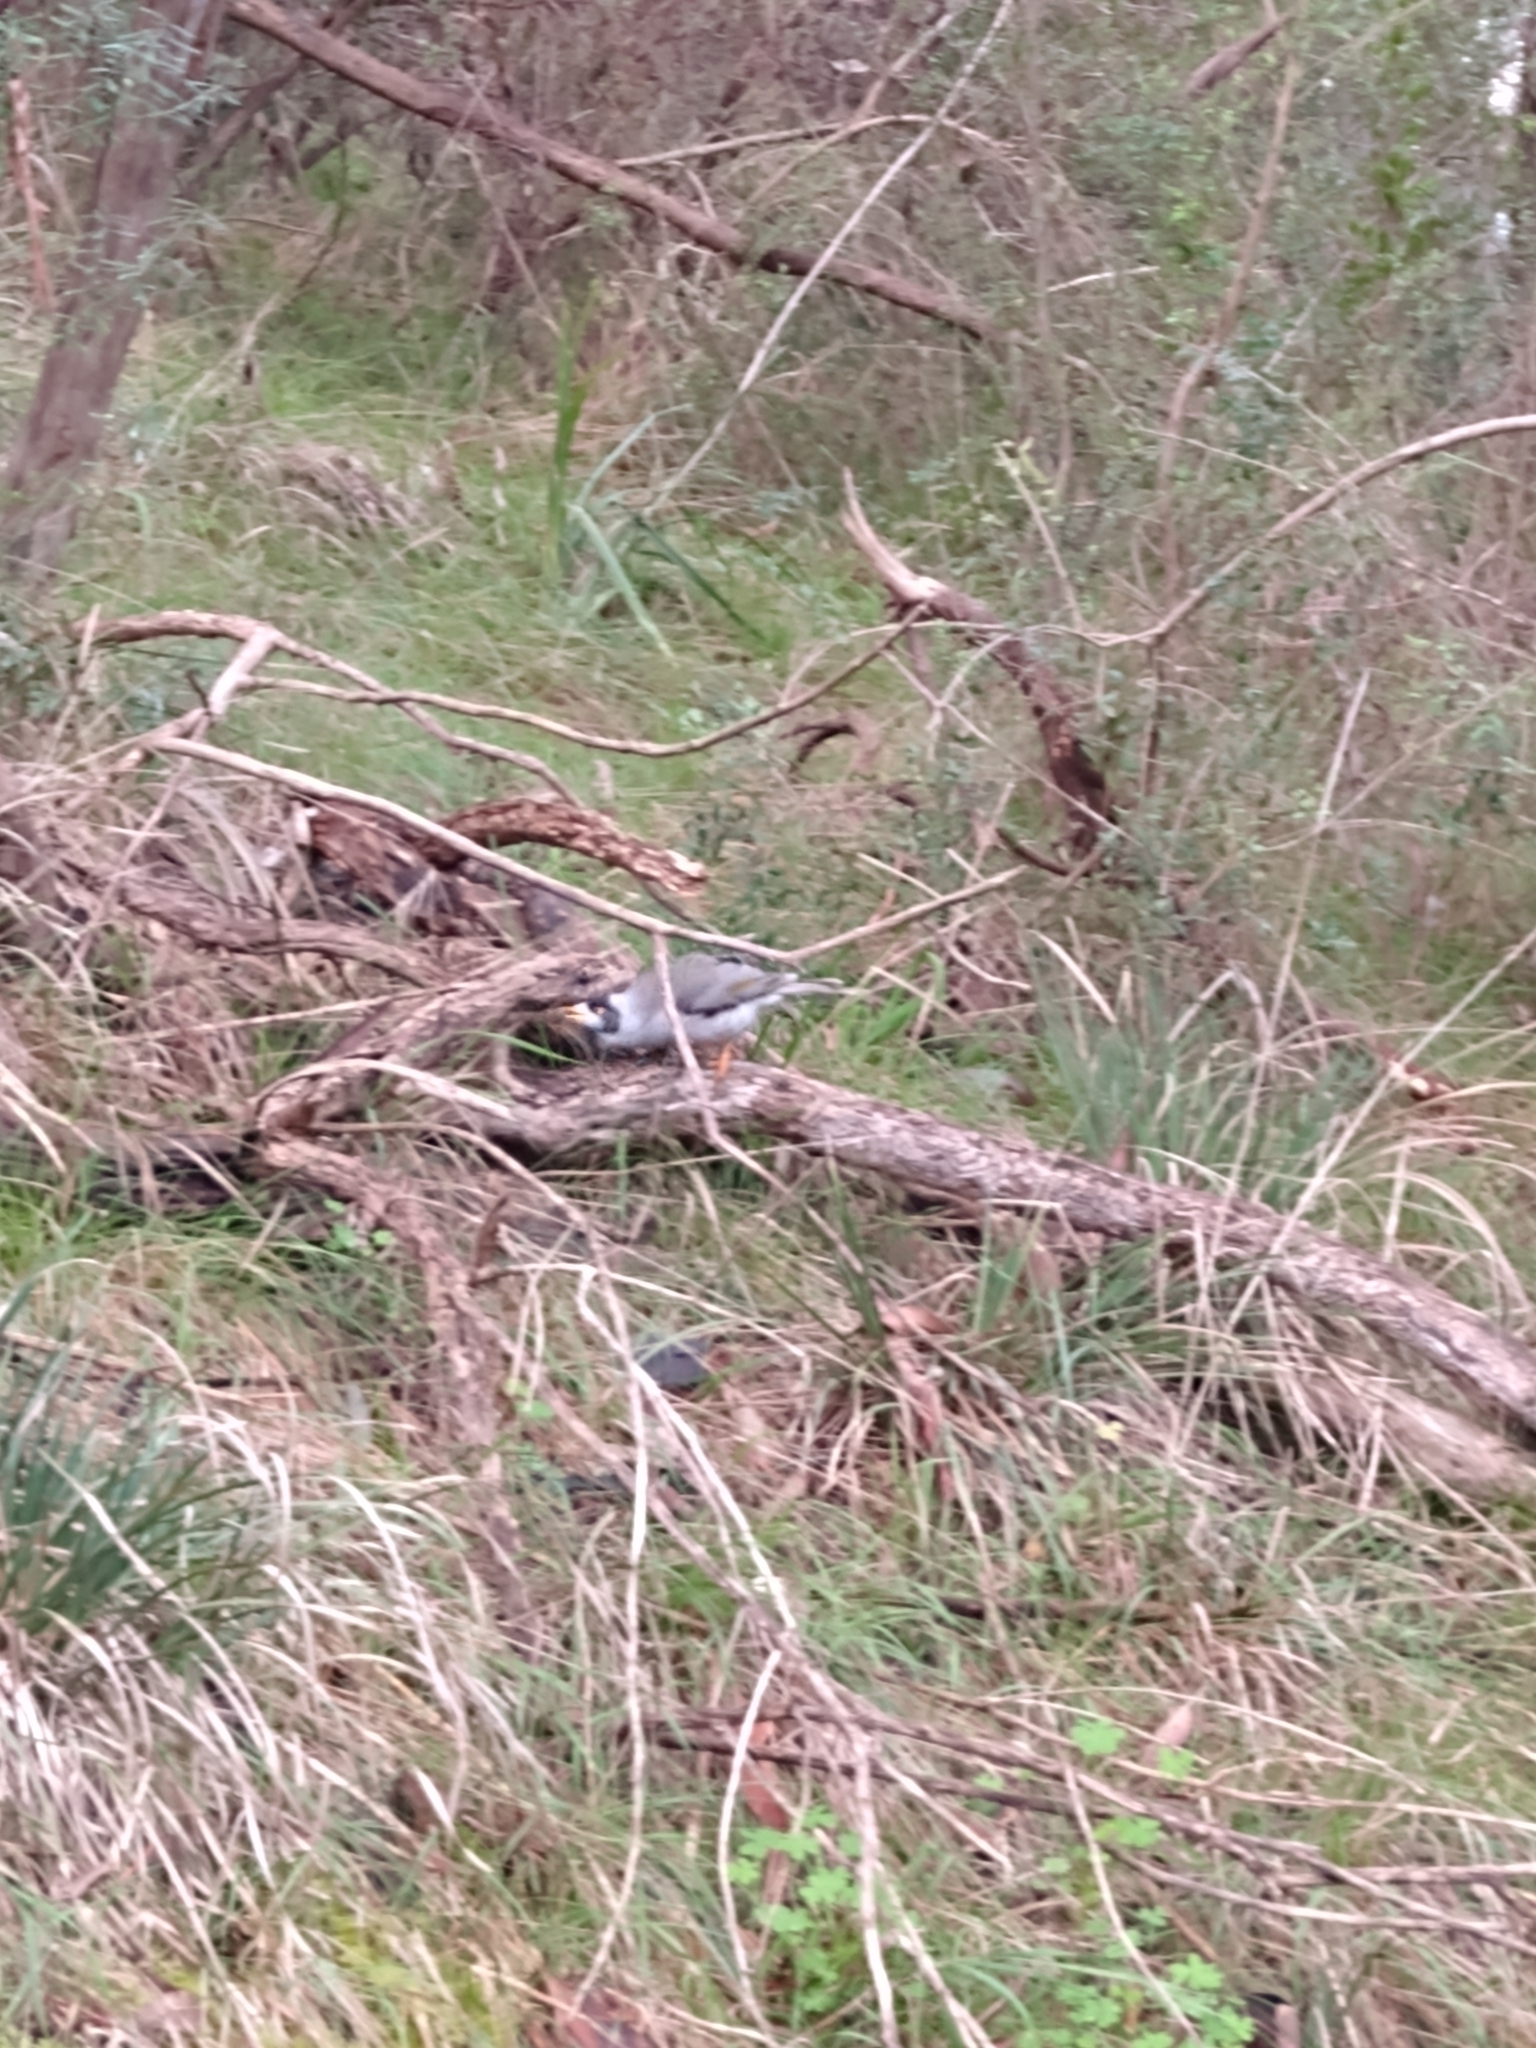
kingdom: Animalia
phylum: Chordata
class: Aves
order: Passeriformes
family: Meliphagidae
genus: Manorina
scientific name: Manorina melanocephala
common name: Noisy miner
